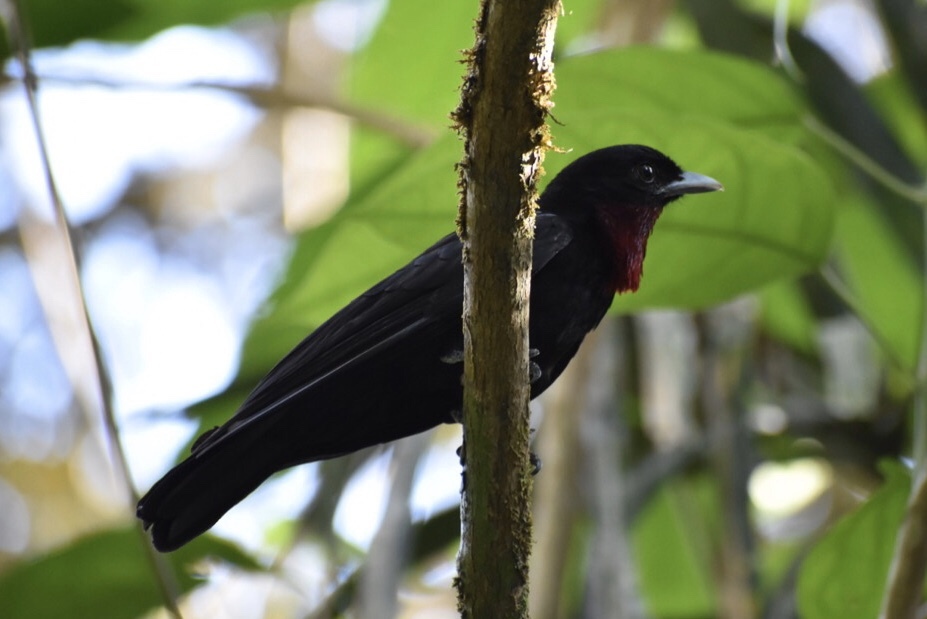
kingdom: Animalia
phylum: Chordata
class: Aves
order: Passeriformes
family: Cotingidae
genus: Querula
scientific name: Querula purpurata
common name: Purple-throated fruitcrow
